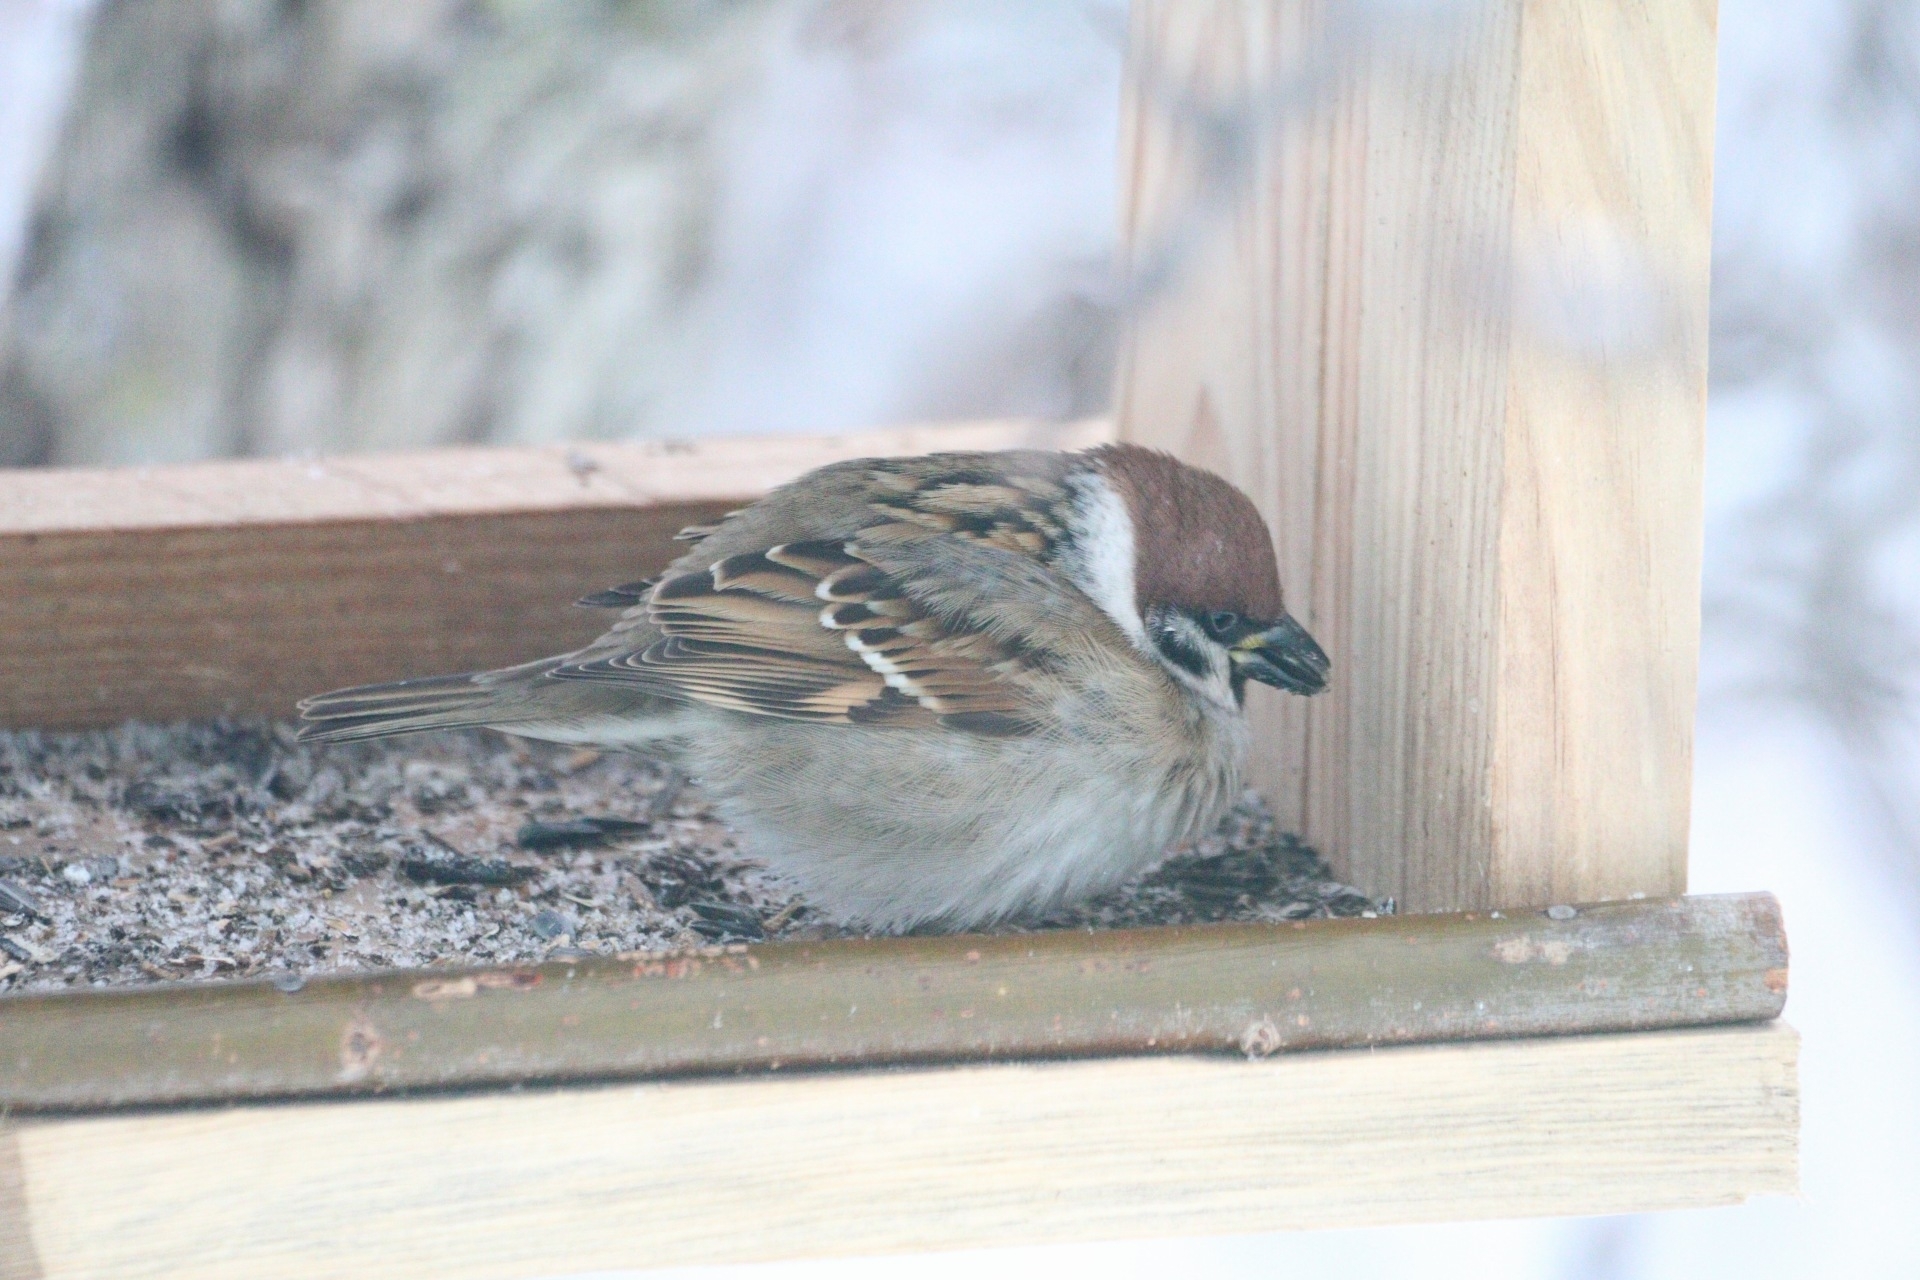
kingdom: Animalia
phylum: Chordata
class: Aves
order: Passeriformes
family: Passeridae
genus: Passer
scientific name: Passer montanus
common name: Eurasian tree sparrow
